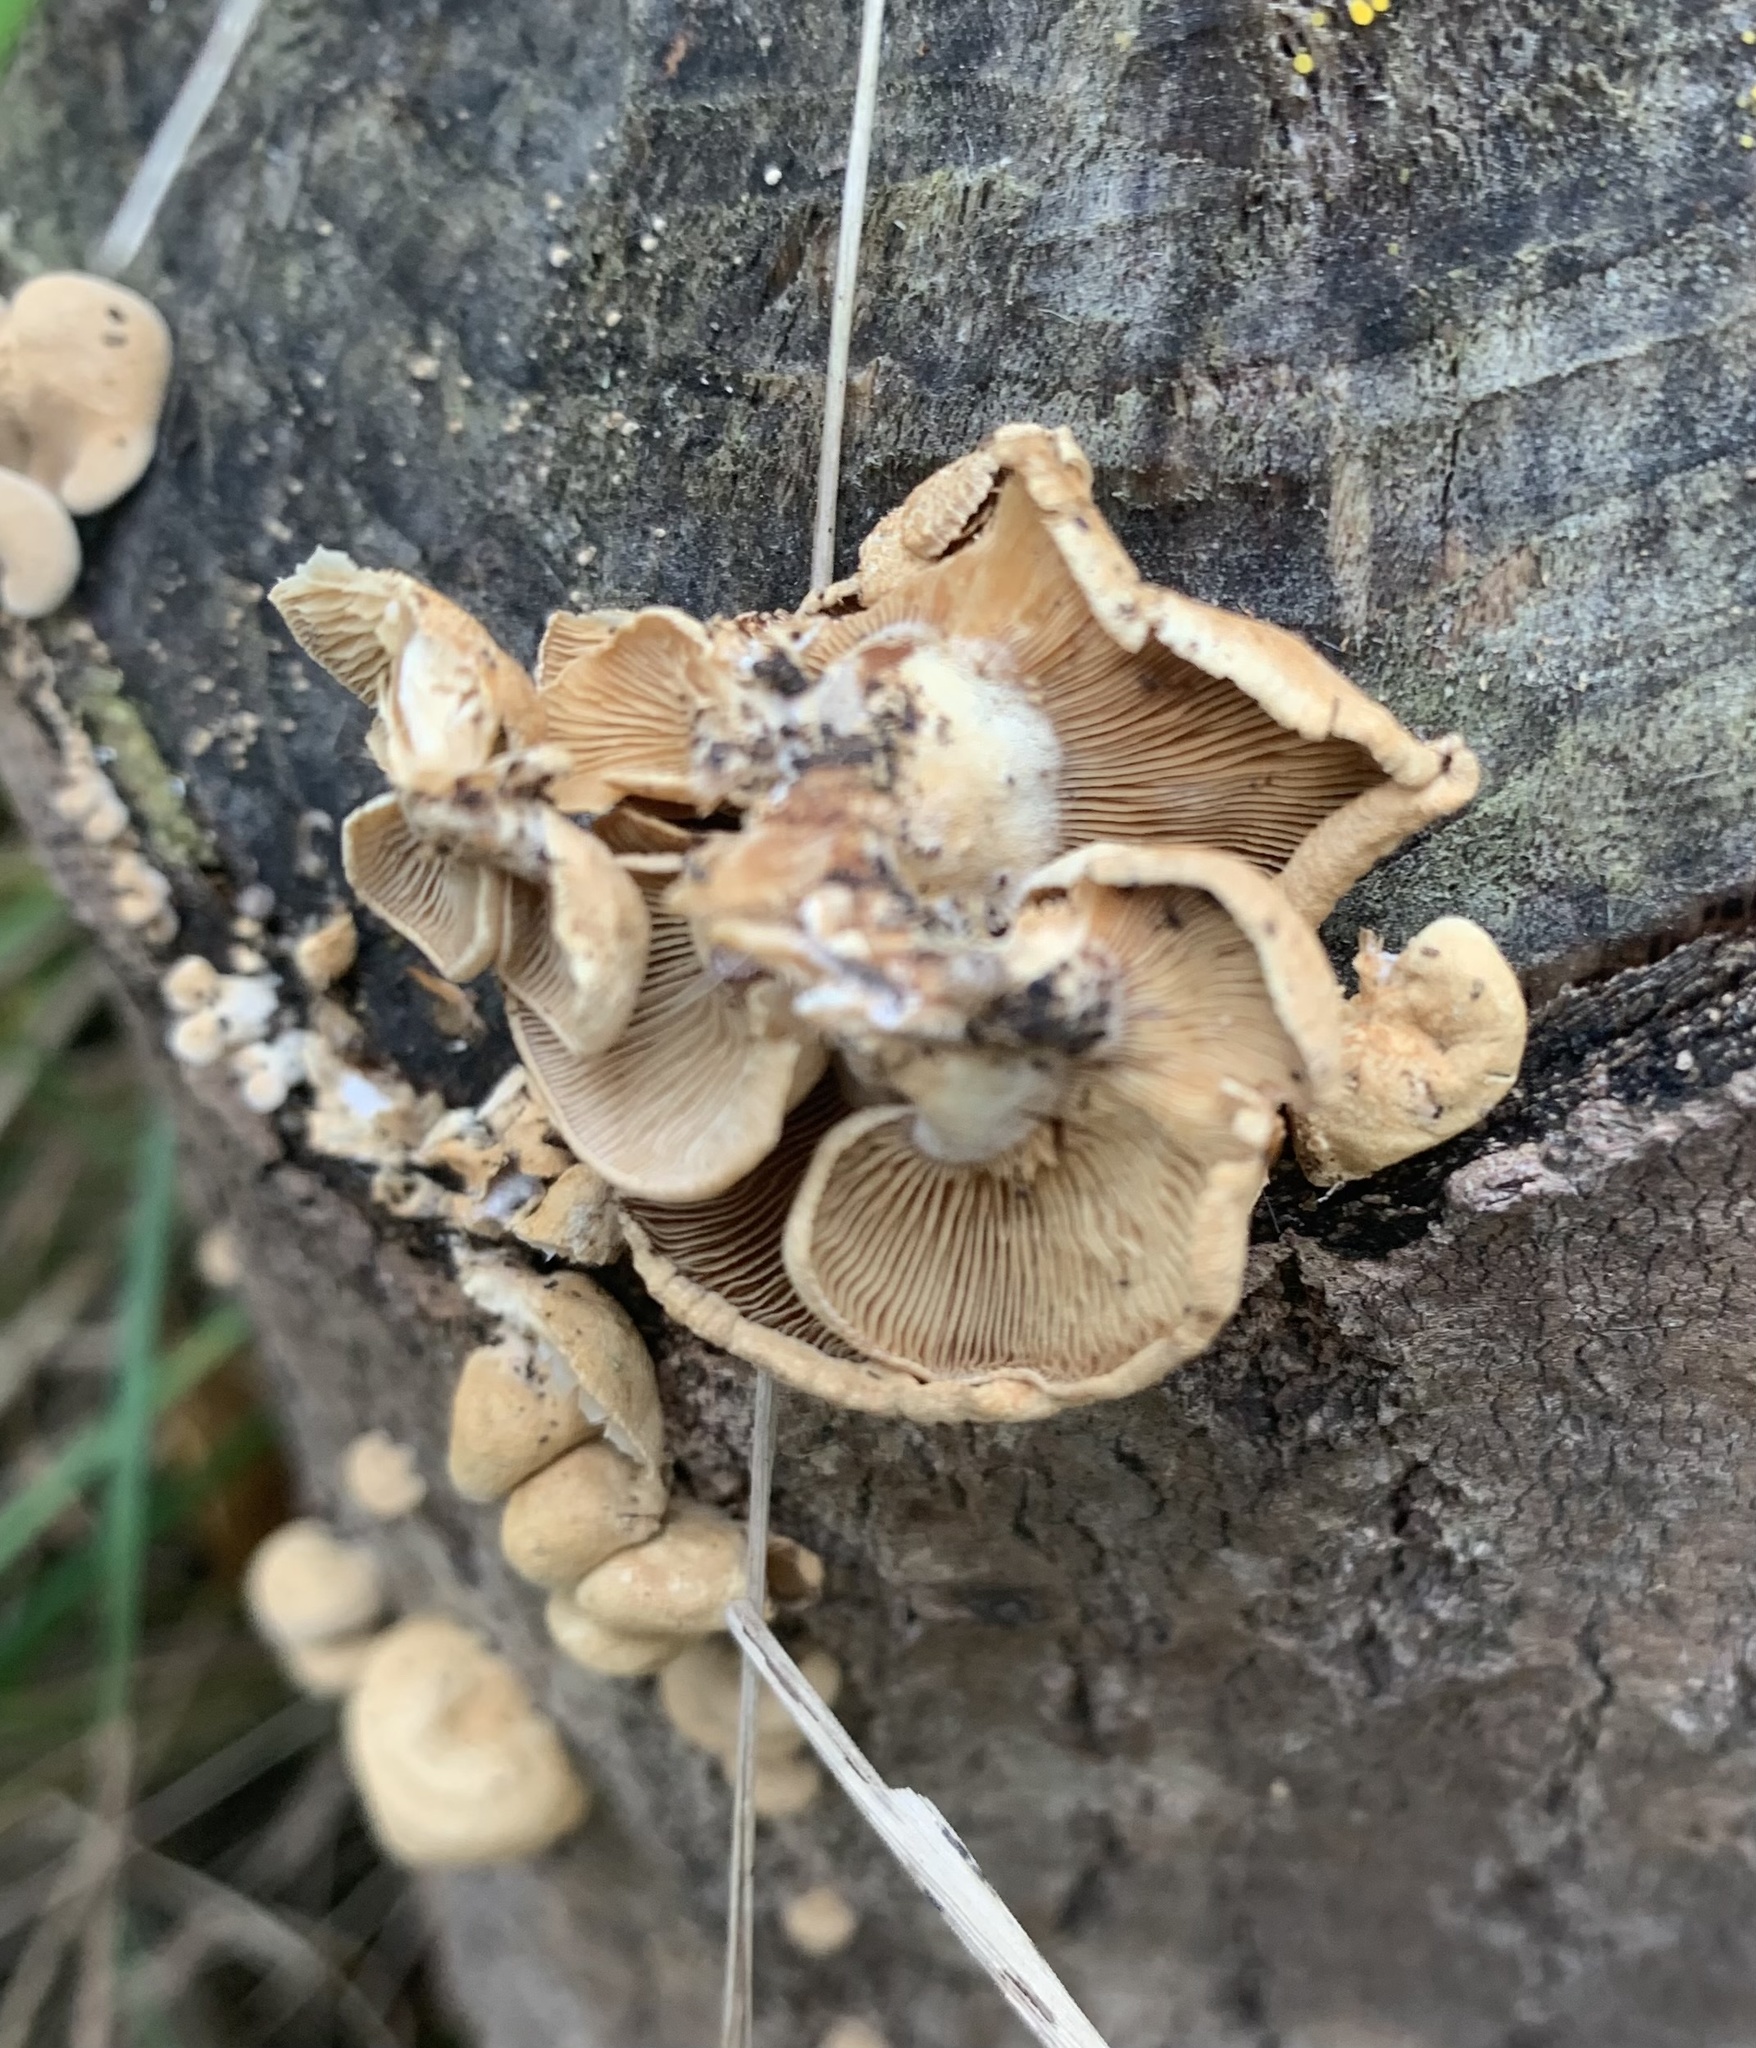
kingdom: Fungi
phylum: Basidiomycota
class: Agaricomycetes
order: Agaricales
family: Mycenaceae
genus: Panellus
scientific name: Panellus stipticus
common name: Bitter oysterling
